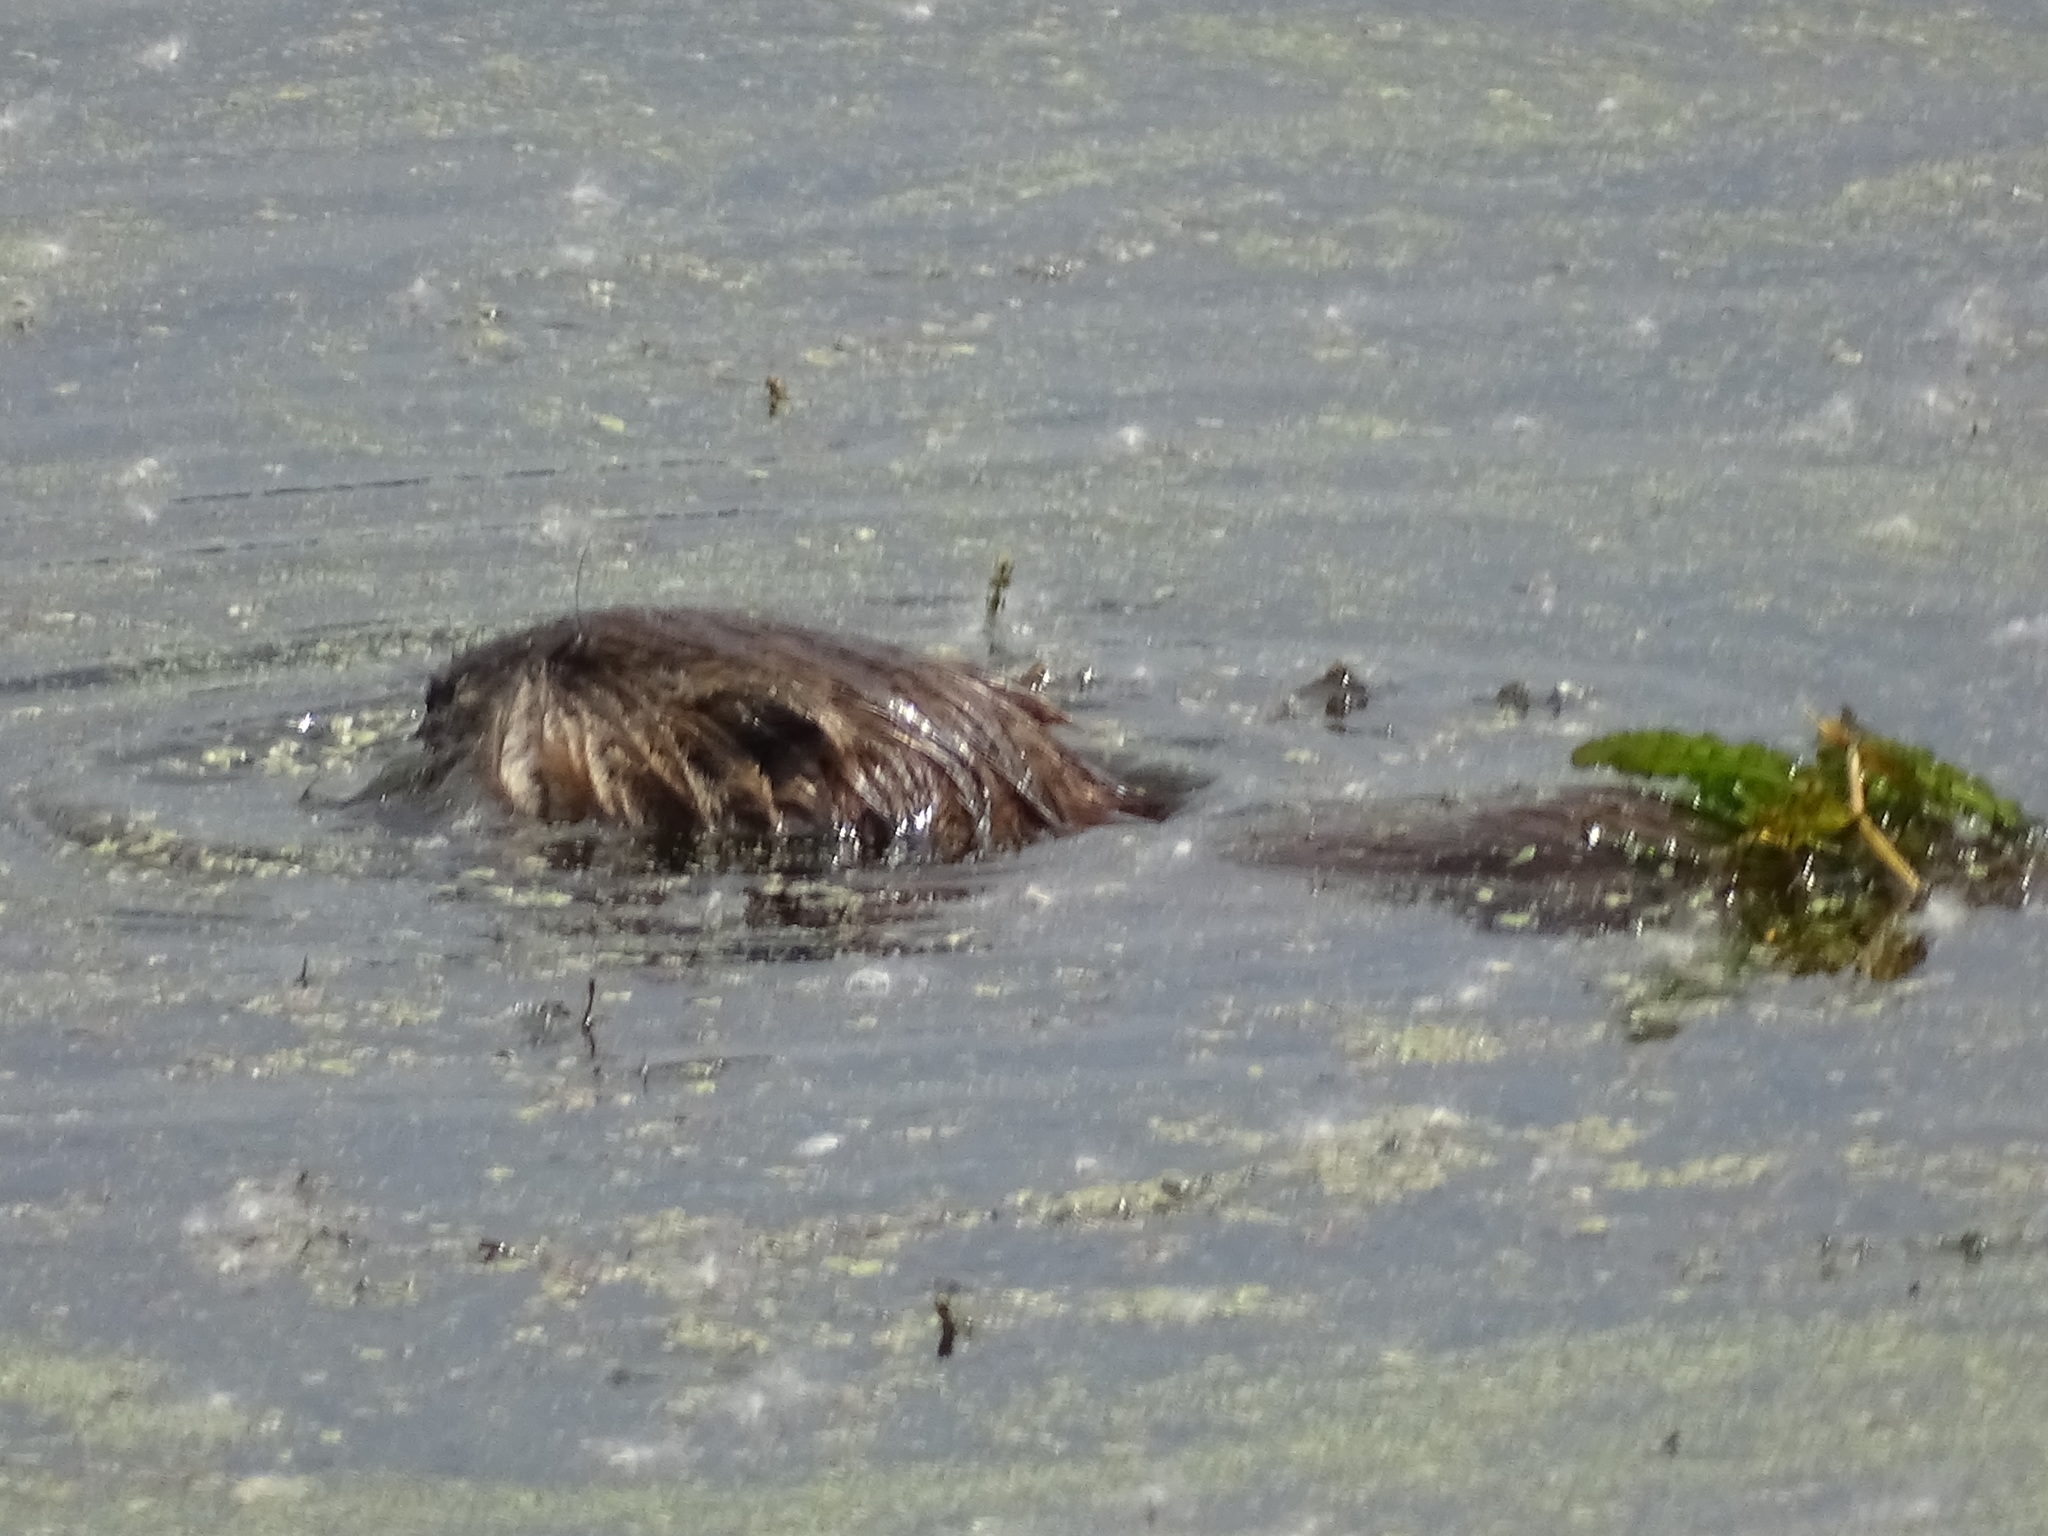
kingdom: Animalia
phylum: Chordata
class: Mammalia
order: Rodentia
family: Cricetidae
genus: Ondatra
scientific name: Ondatra zibethicus
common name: Muskrat
